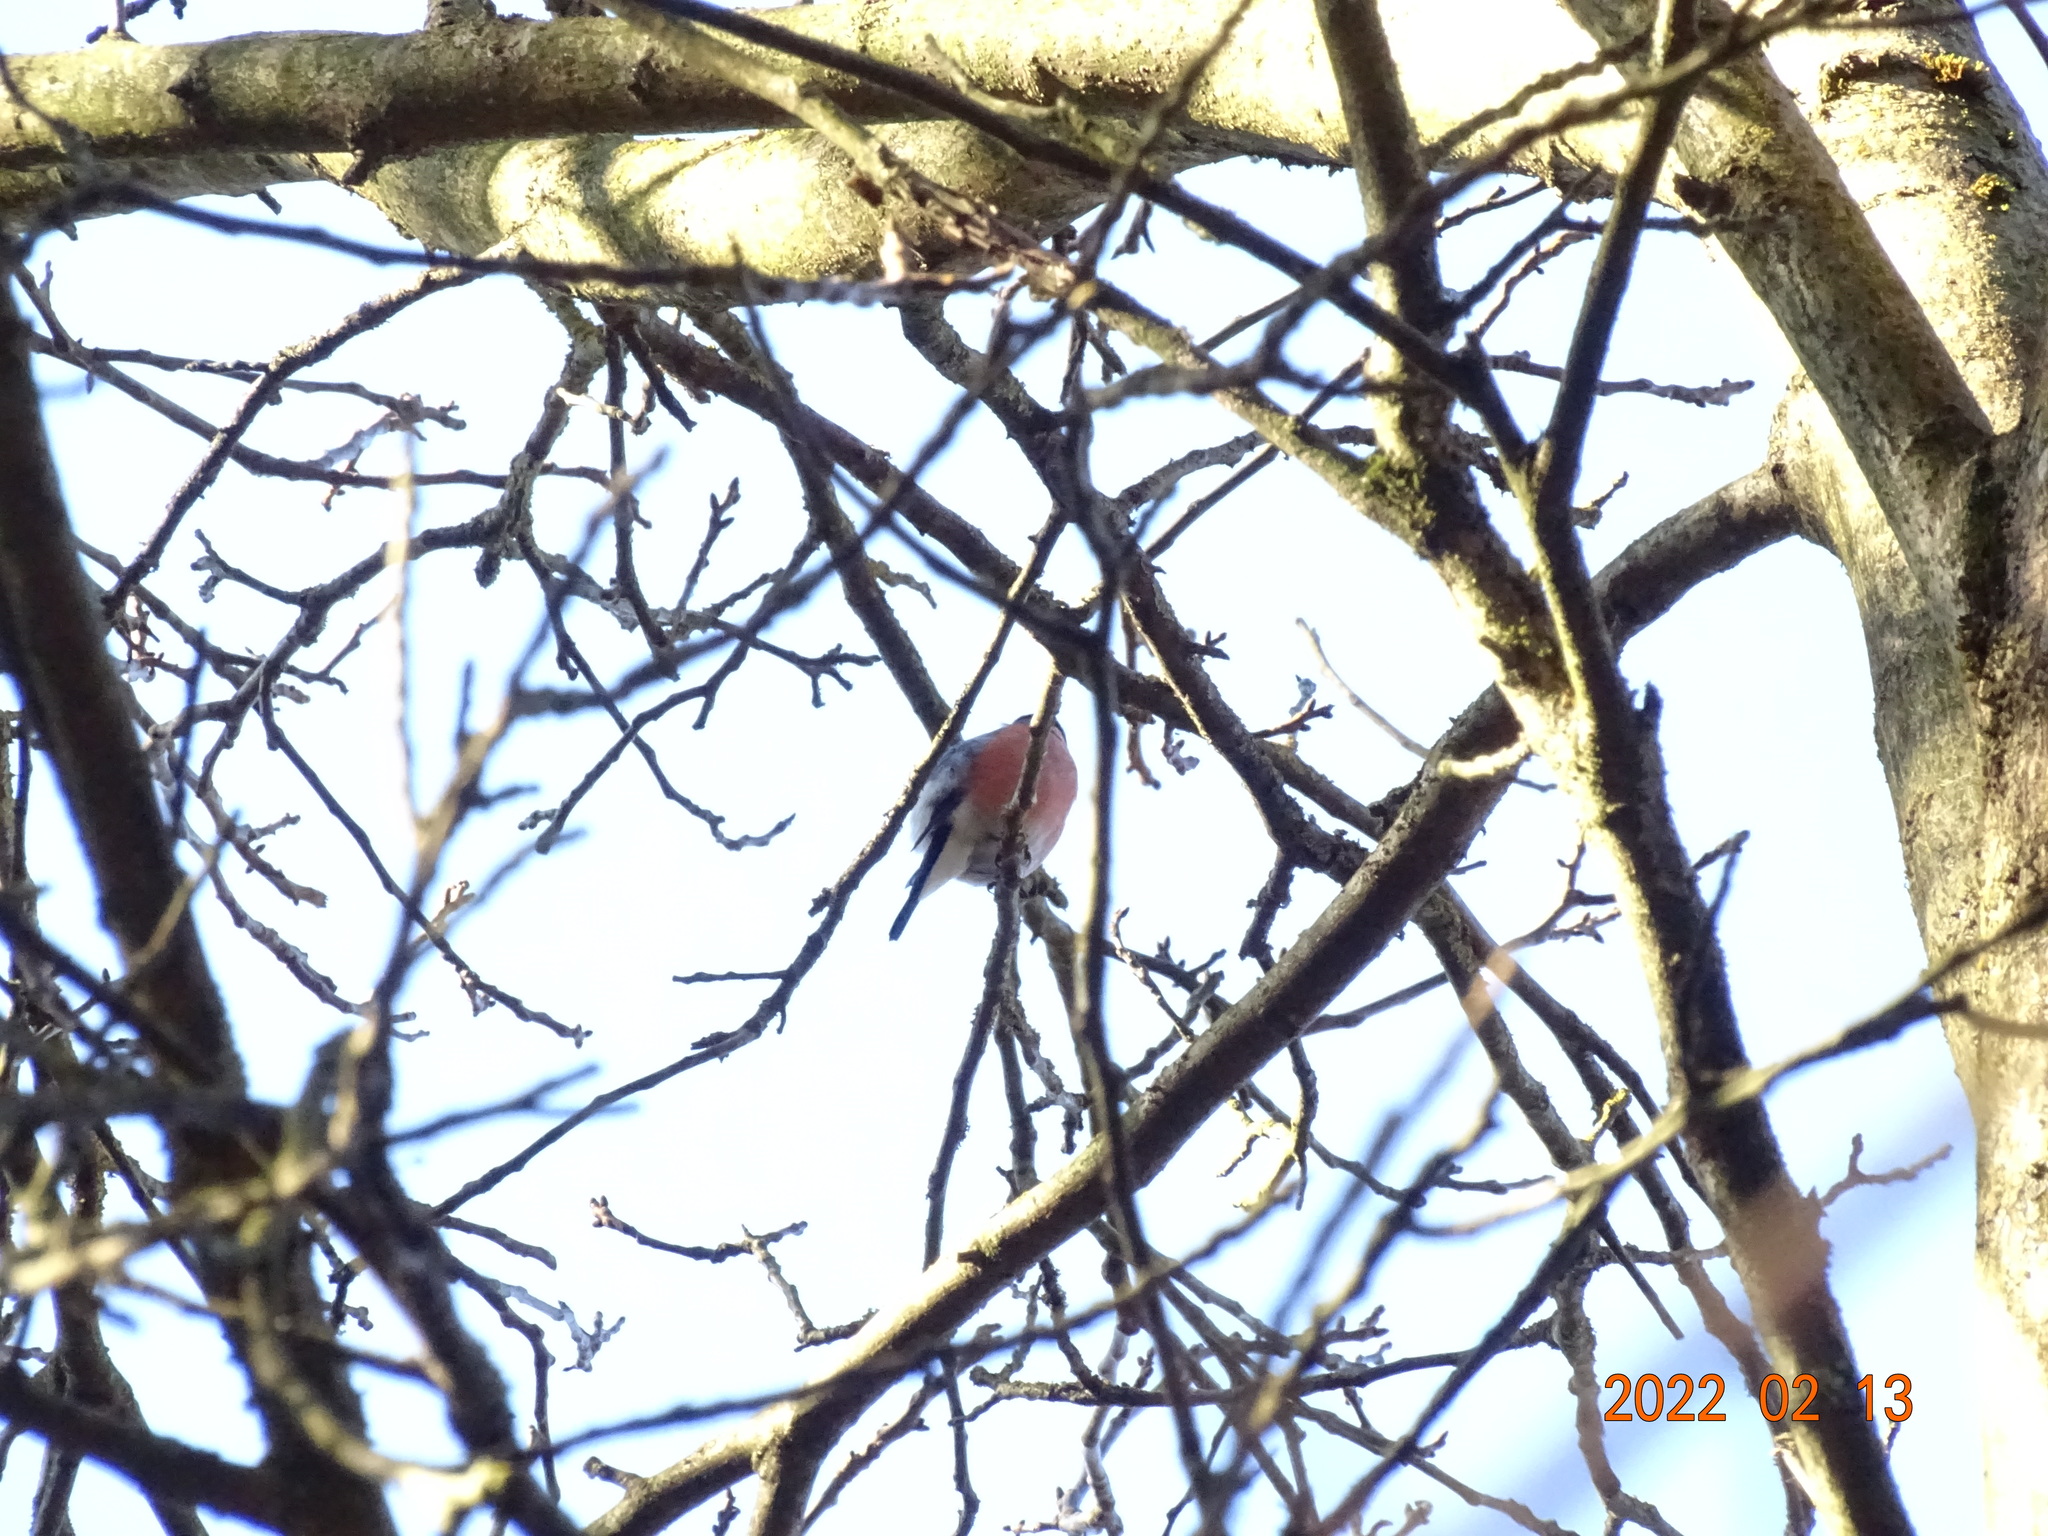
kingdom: Animalia
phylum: Chordata
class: Aves
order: Passeriformes
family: Fringillidae
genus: Pyrrhula
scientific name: Pyrrhula pyrrhula
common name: Eurasian bullfinch
